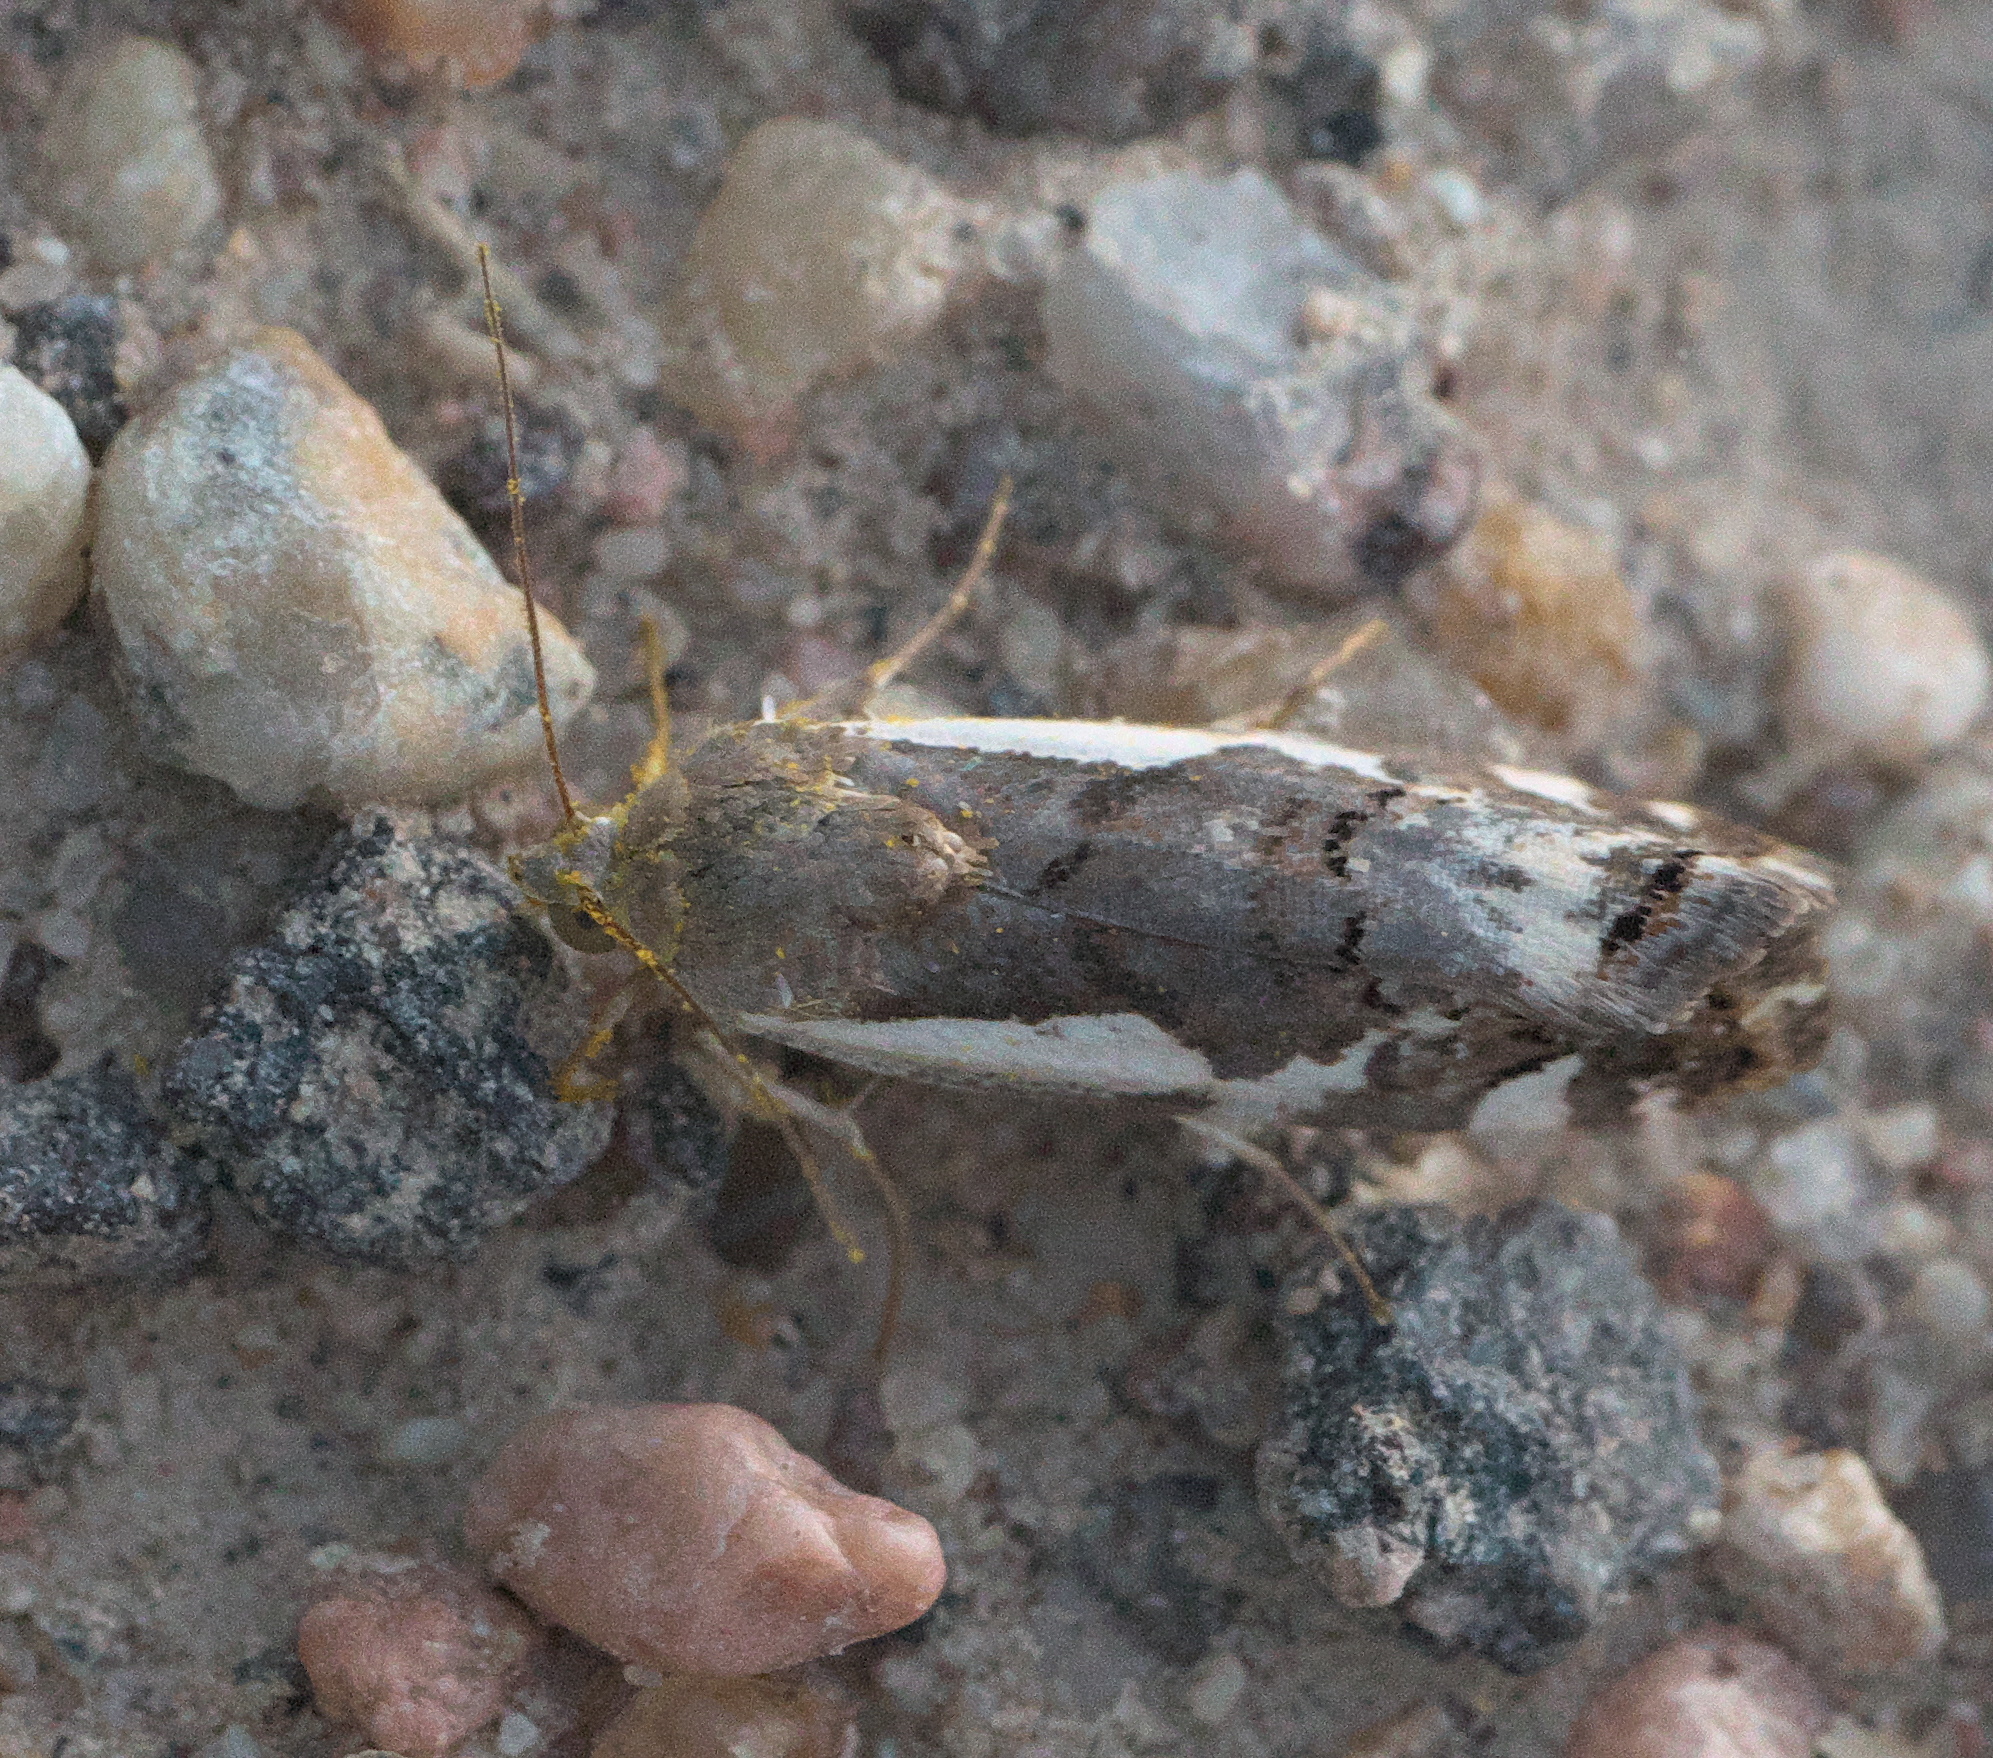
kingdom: Animalia
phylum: Arthropoda
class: Insecta
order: Lepidoptera
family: Noctuidae
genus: Acontia
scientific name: Acontia Tarache augustipennis
